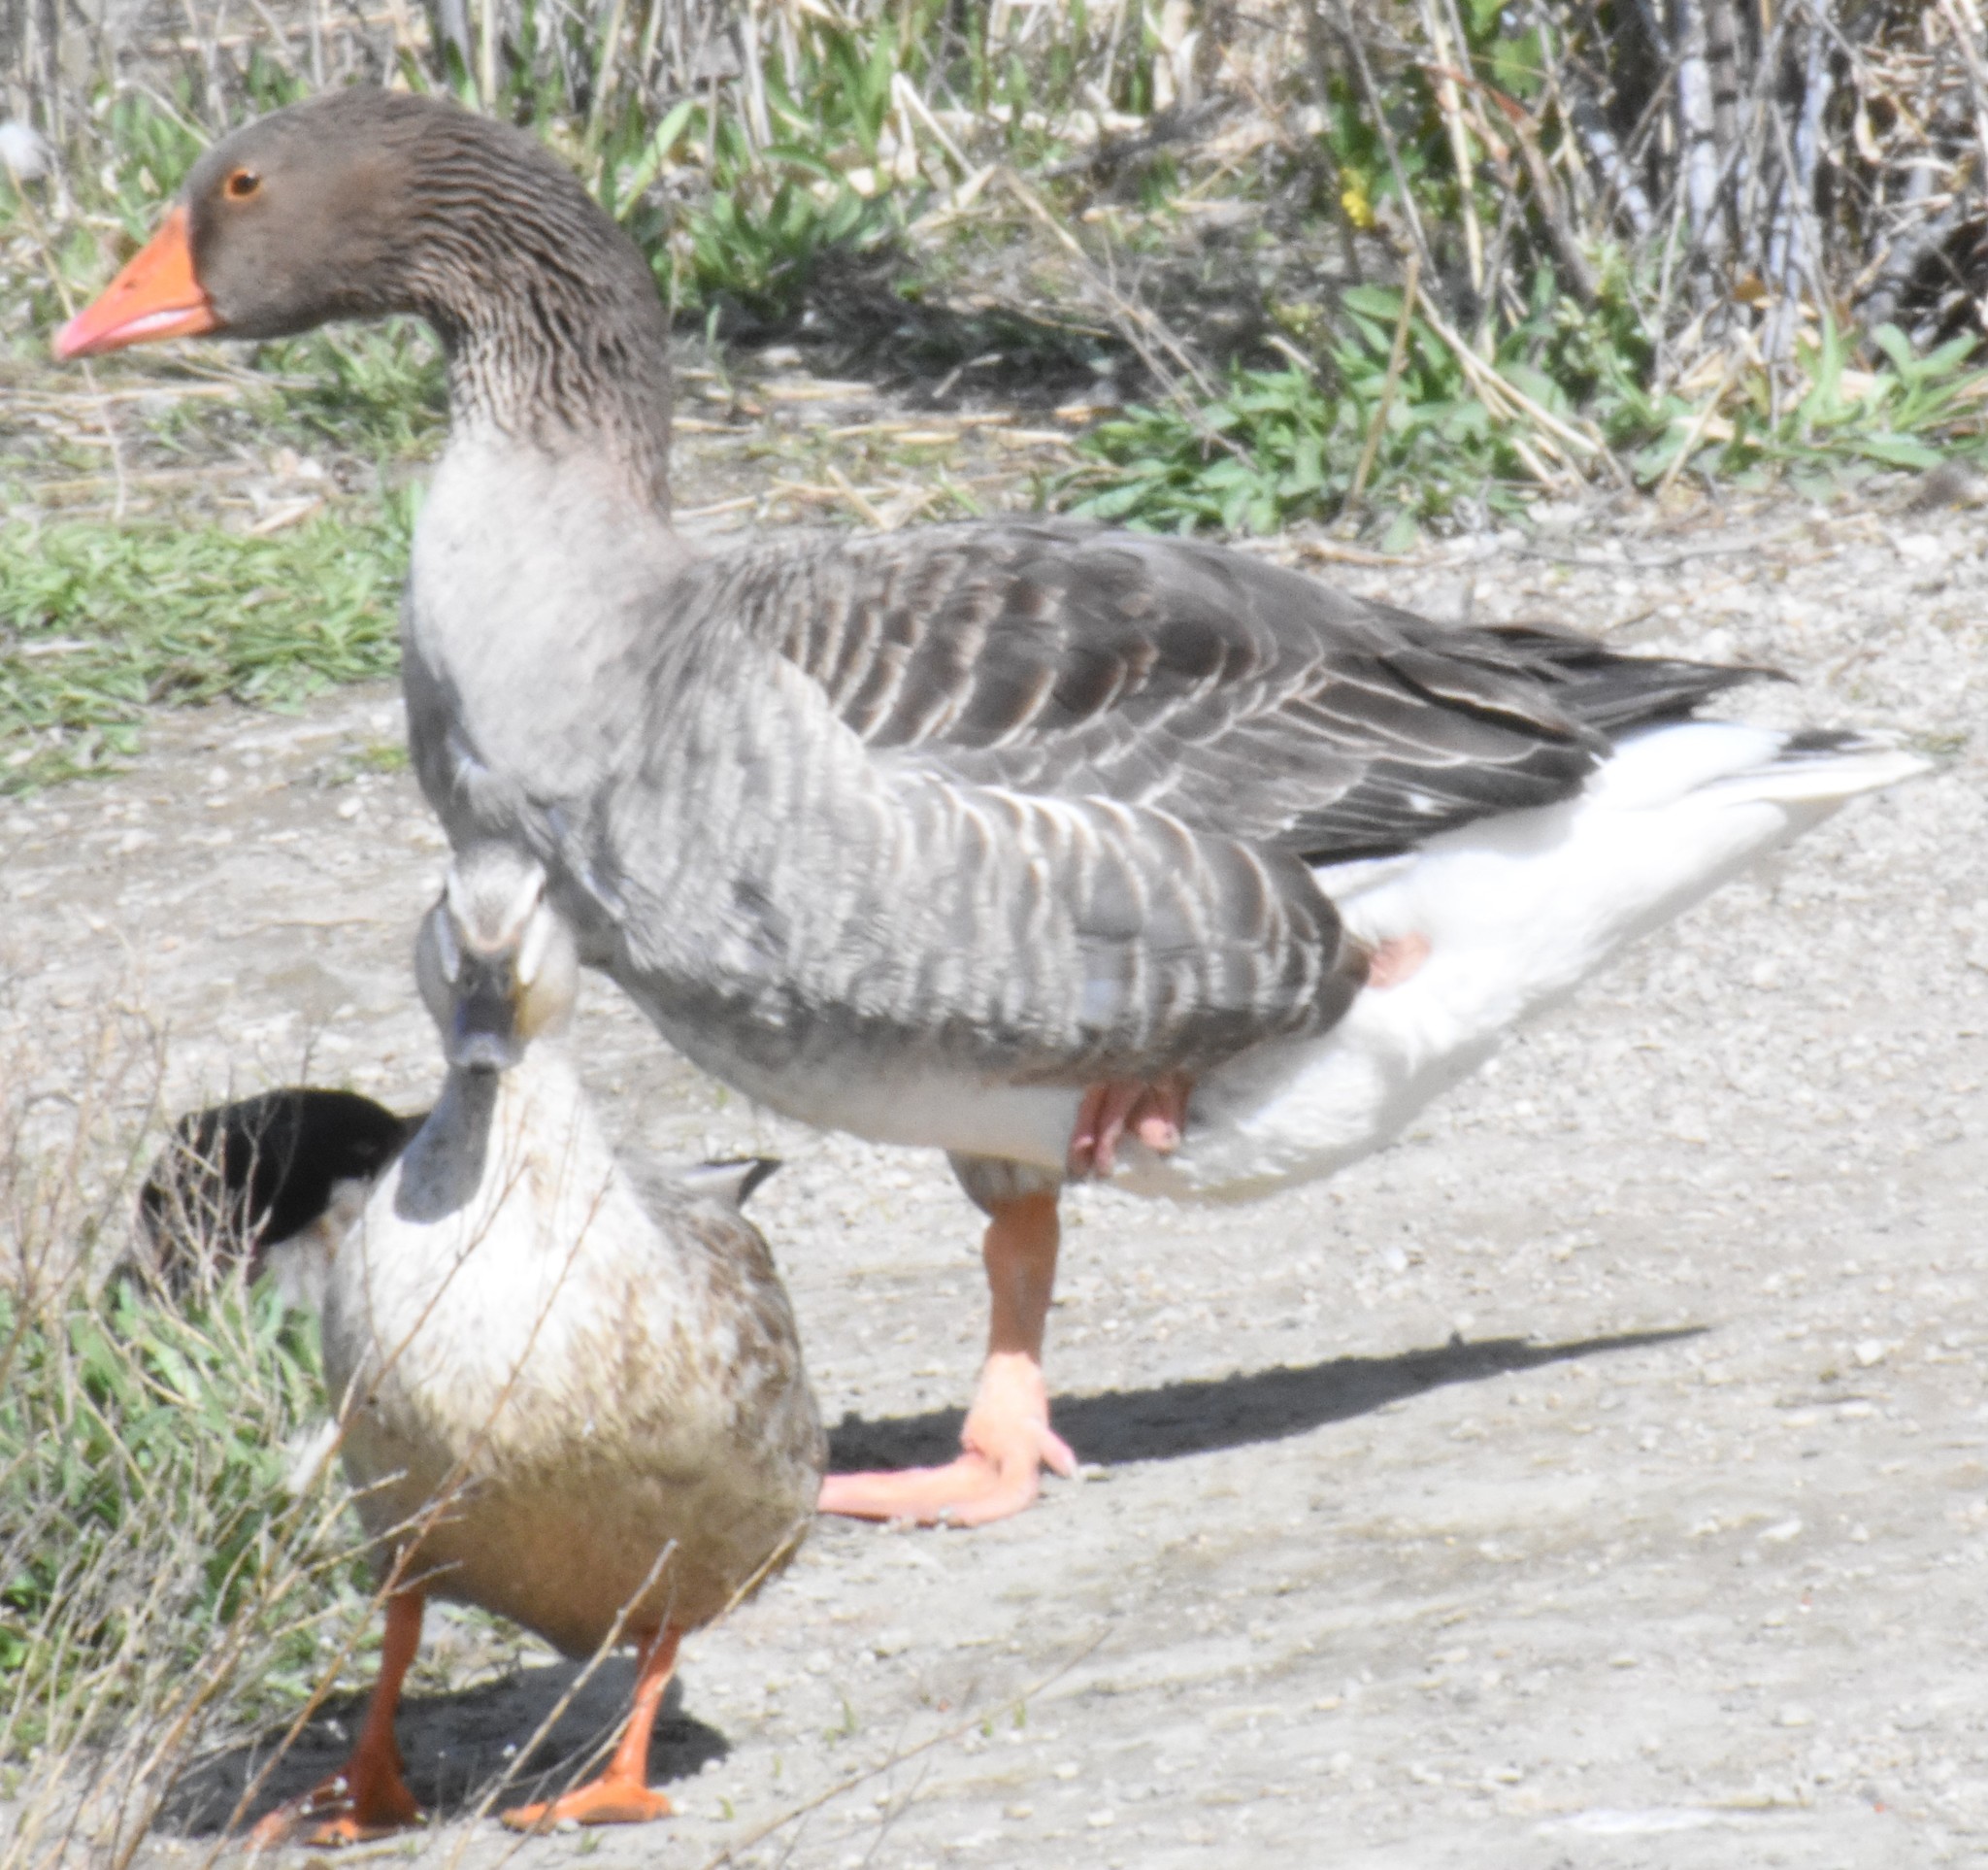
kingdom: Animalia
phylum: Chordata
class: Aves
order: Anseriformes
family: Anatidae
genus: Anser
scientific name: Anser anser
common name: Greylag goose
